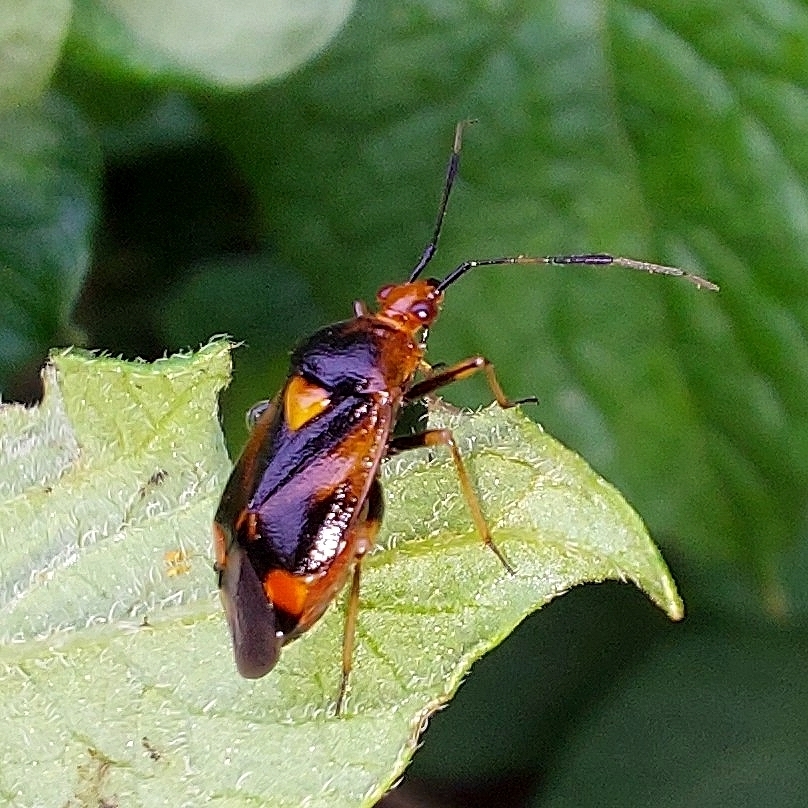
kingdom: Animalia
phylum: Arthropoda
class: Insecta
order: Hemiptera
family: Miridae
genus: Deraeocoris
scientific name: Deraeocoris ruber
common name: Plant bug
